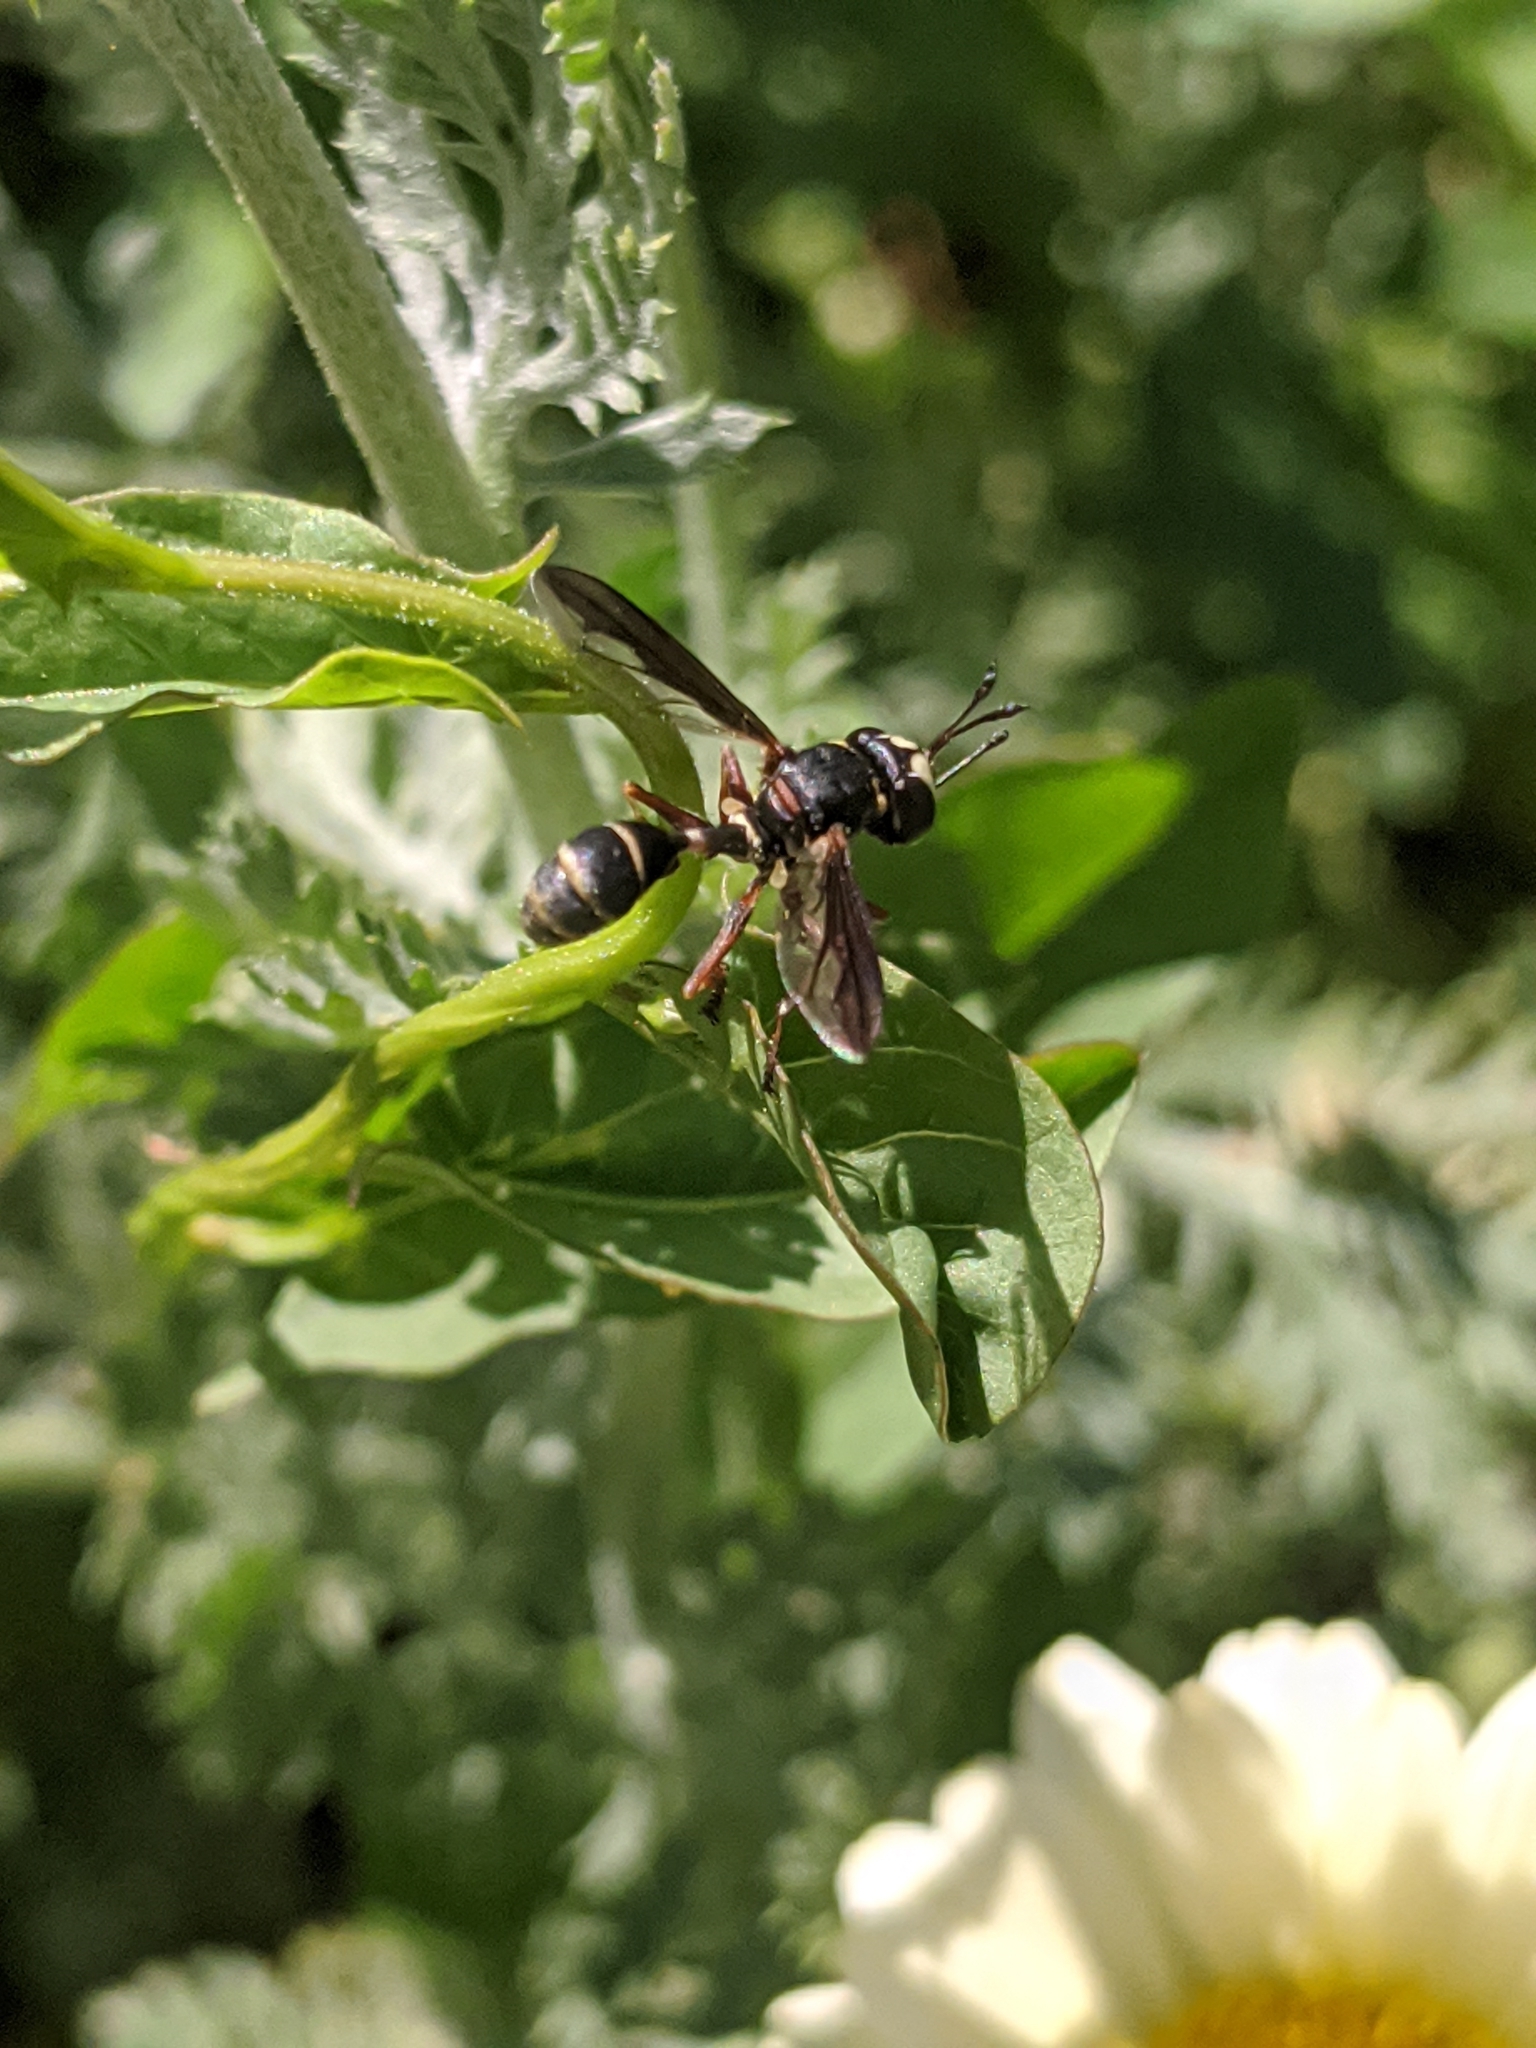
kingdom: Animalia
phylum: Arthropoda
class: Insecta
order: Diptera
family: Conopidae
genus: Physocephala
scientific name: Physocephala marginata
